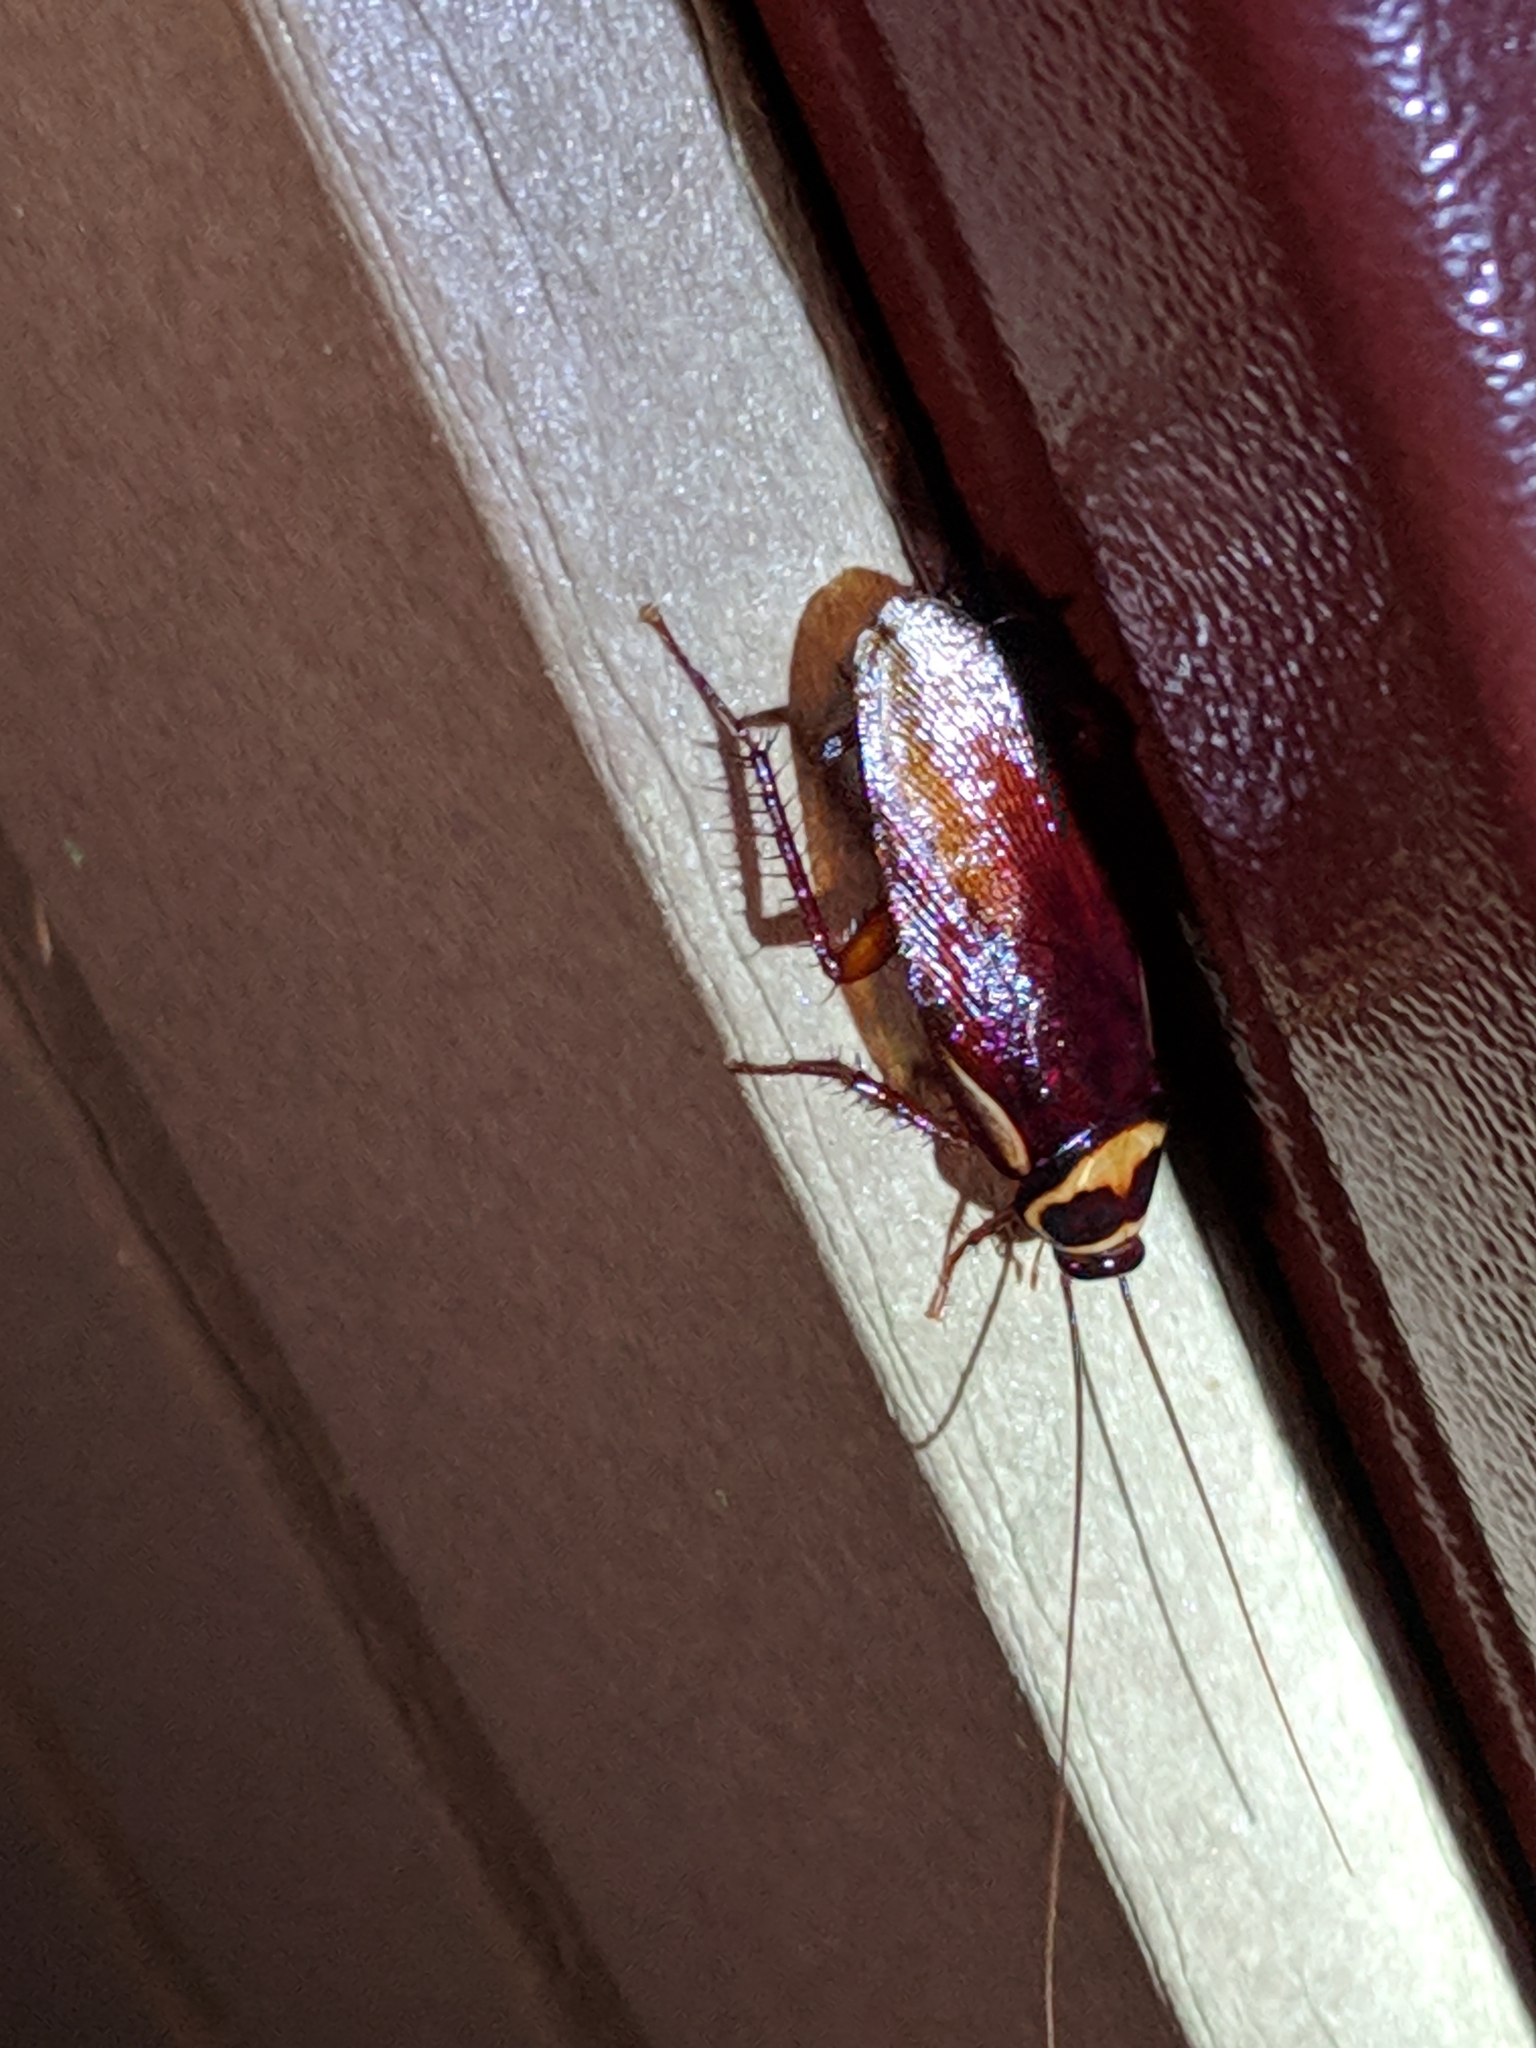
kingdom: Animalia
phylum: Arthropoda
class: Insecta
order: Blattodea
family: Blattidae
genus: Periplaneta
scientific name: Periplaneta australasiae
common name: Australian cockroach
